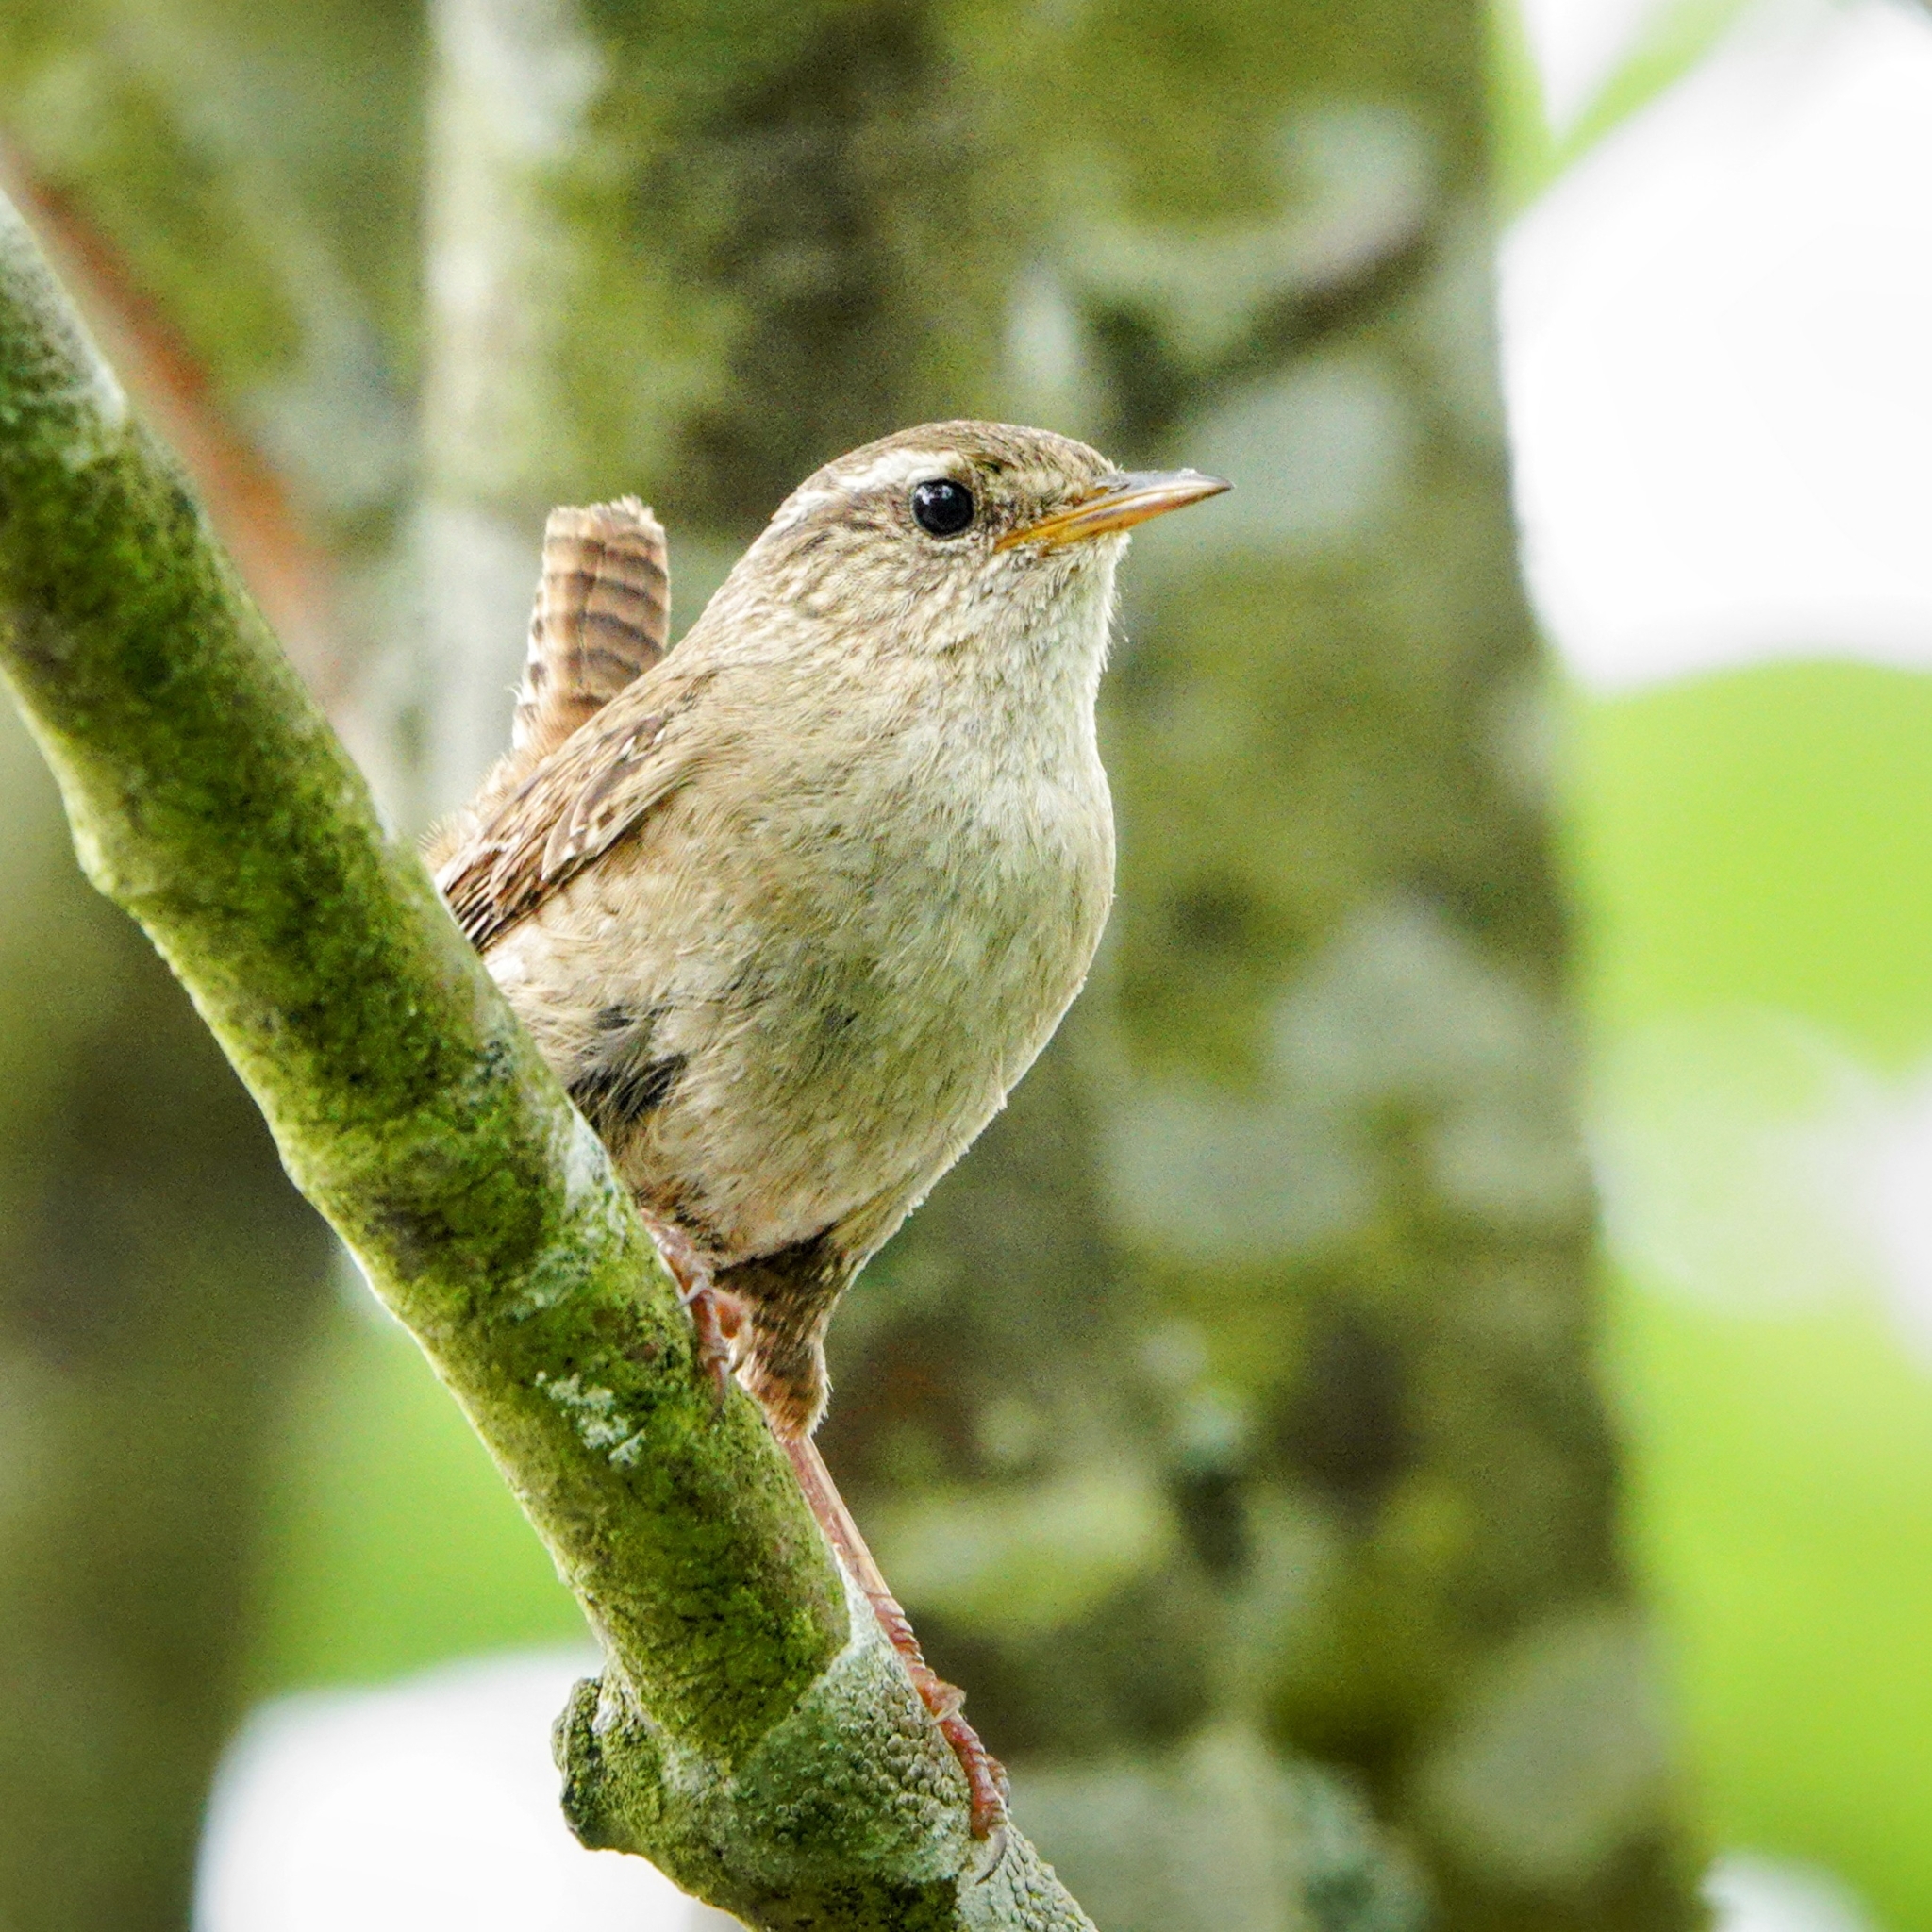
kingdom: Animalia
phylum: Chordata
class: Aves
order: Passeriformes
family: Troglodytidae
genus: Troglodytes
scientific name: Troglodytes troglodytes
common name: Eurasian wren
